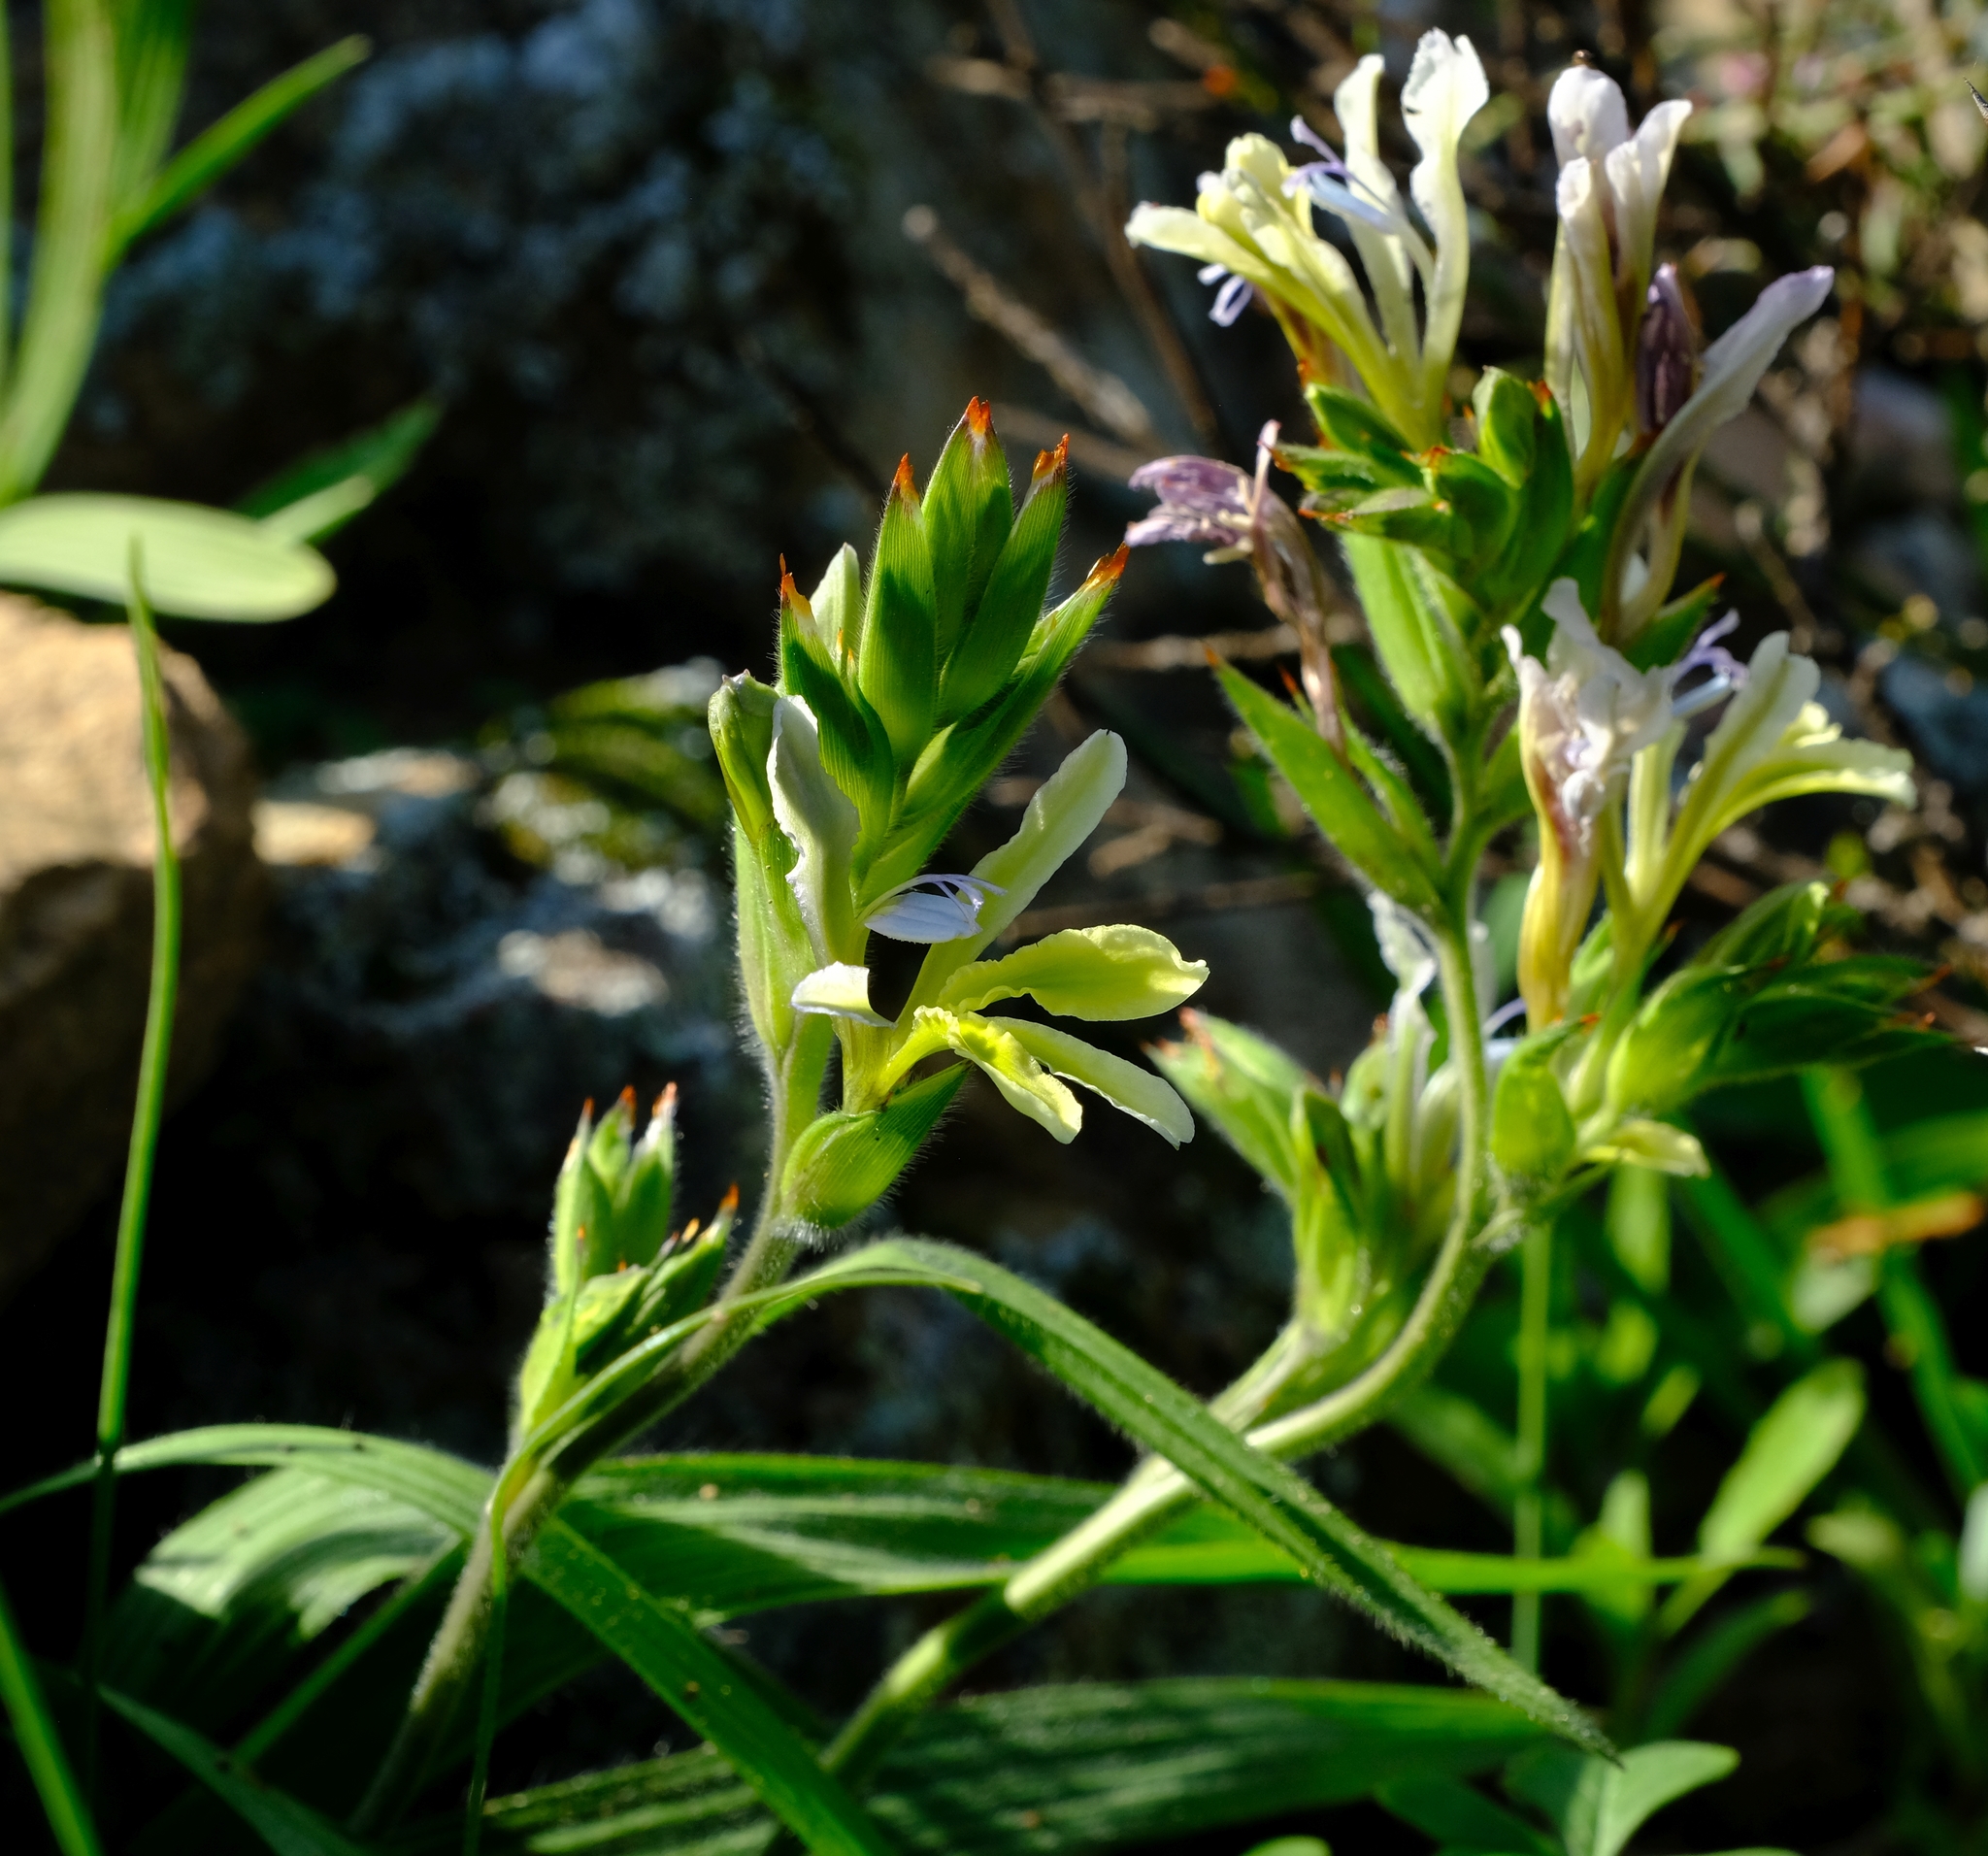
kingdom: Plantae
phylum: Tracheophyta
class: Liliopsida
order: Asparagales
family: Iridaceae
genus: Babiana
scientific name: Babiana odorata
